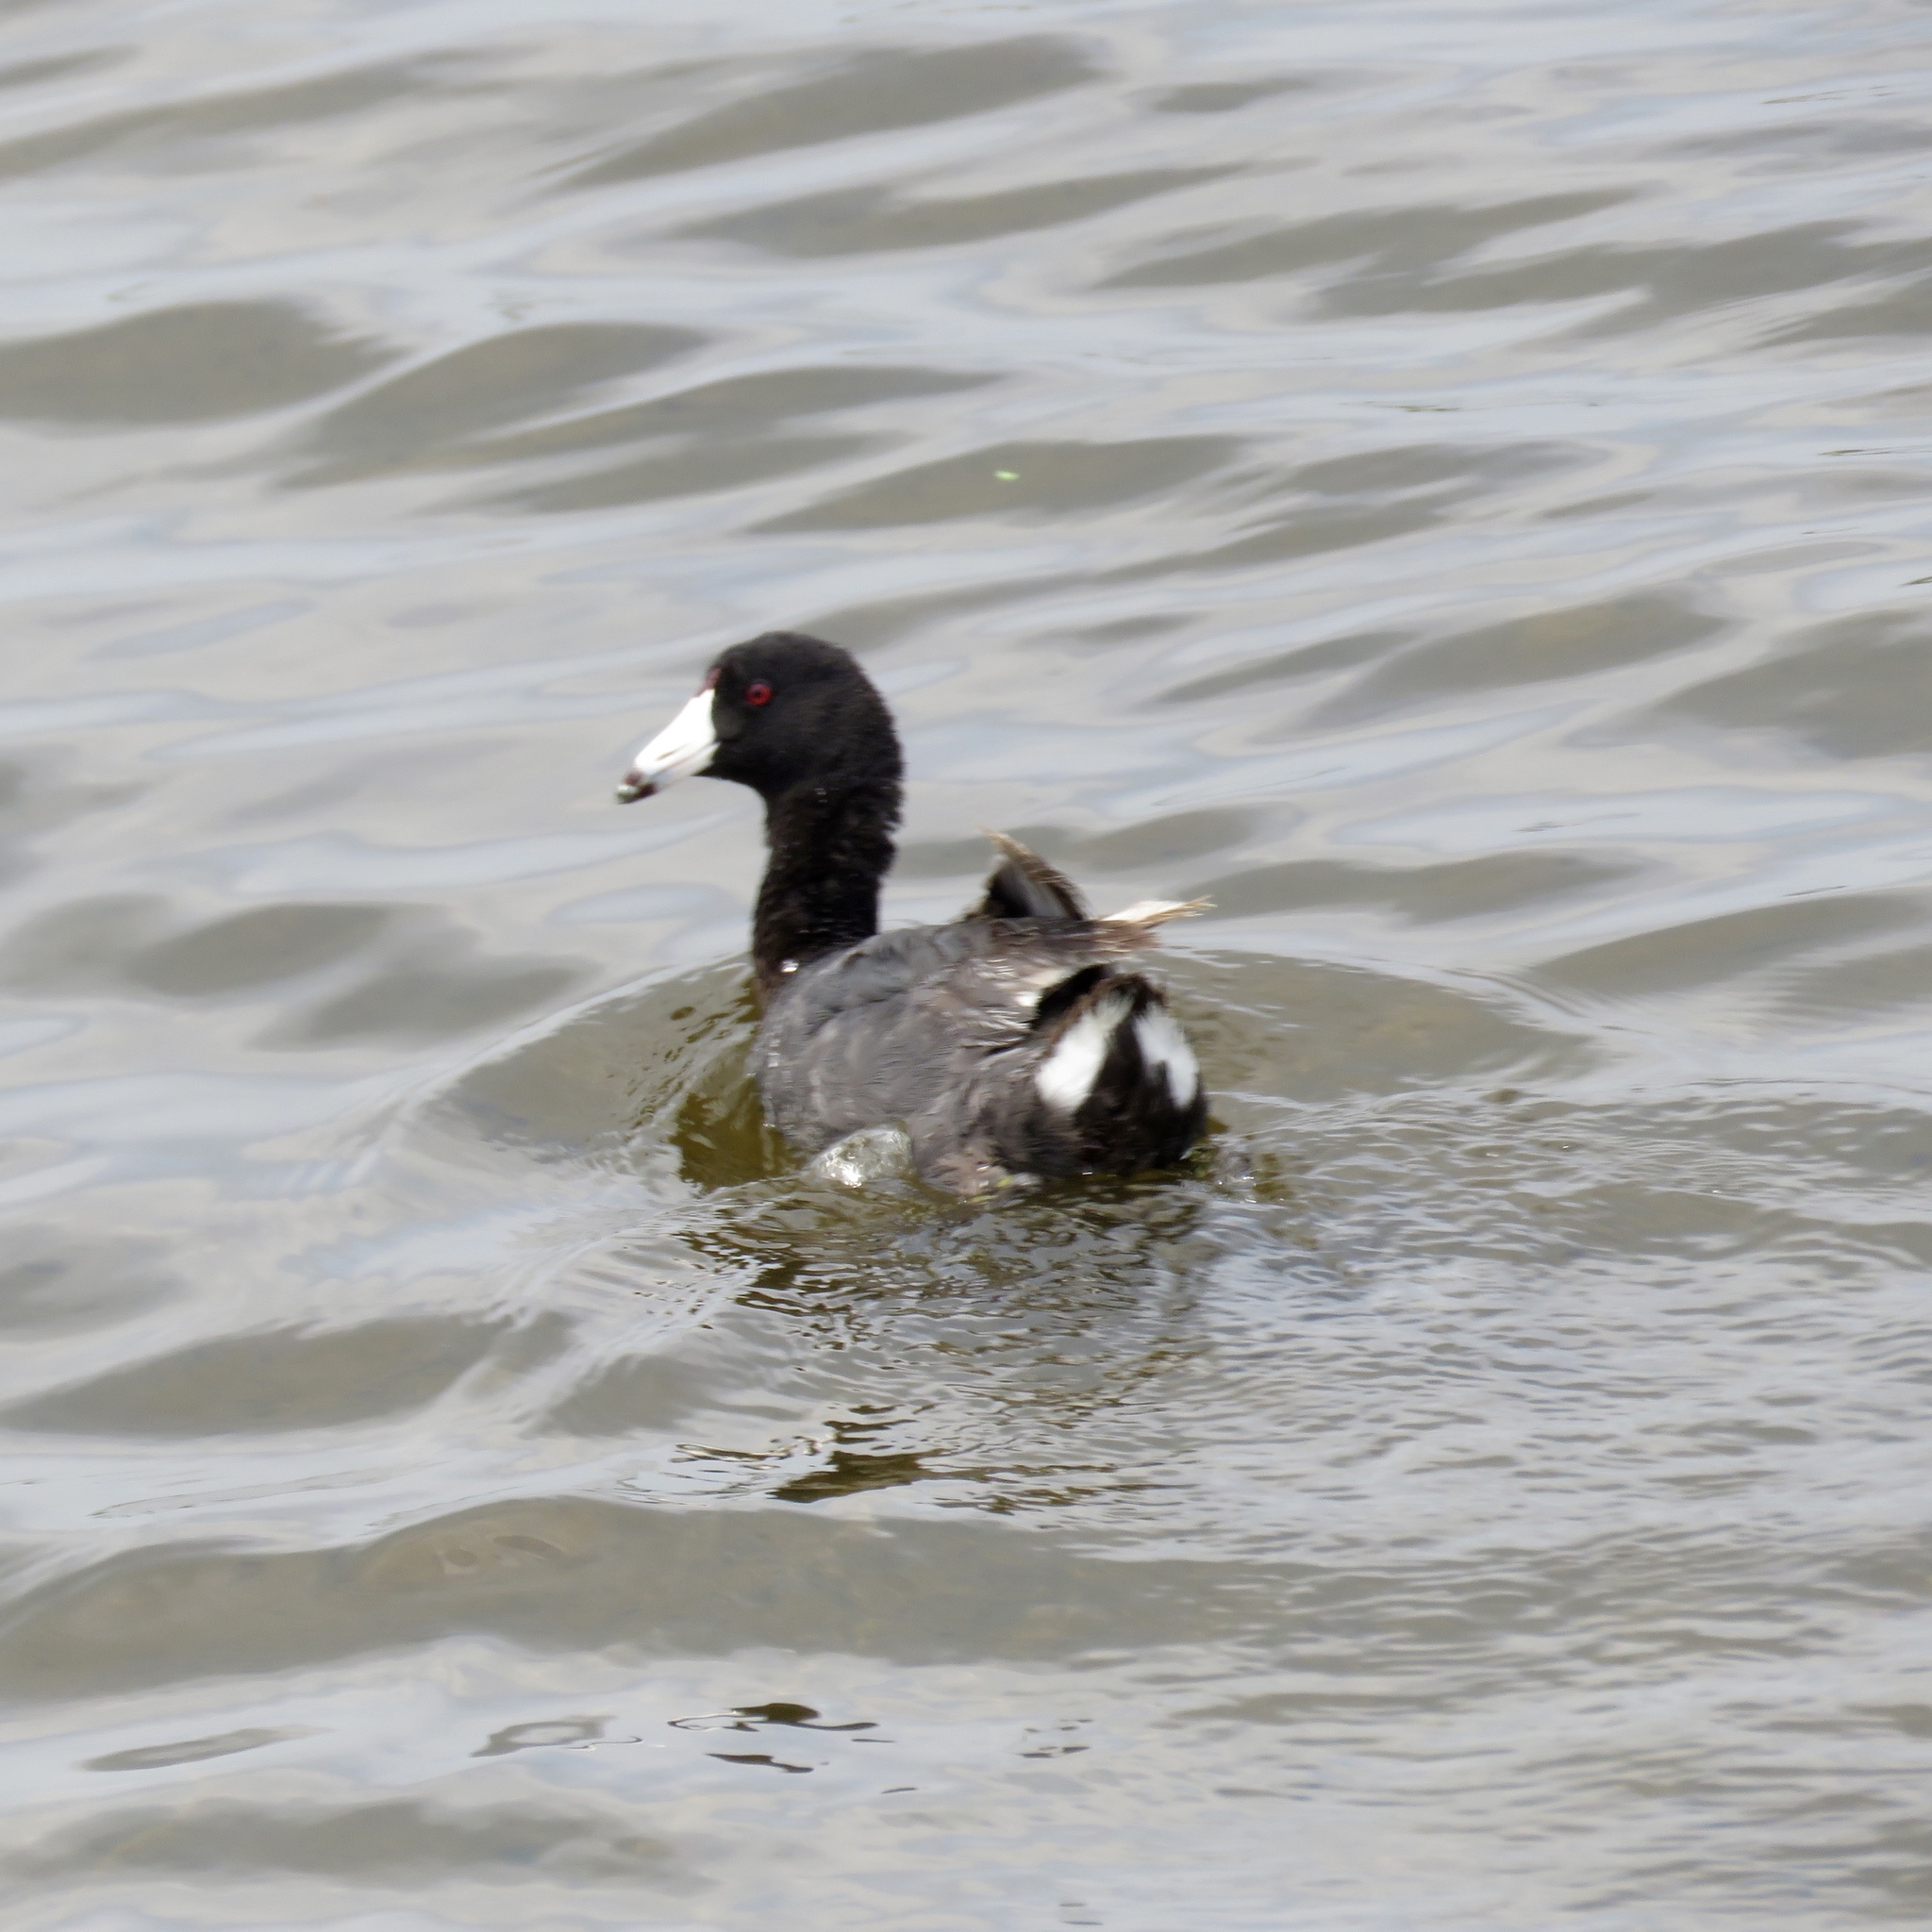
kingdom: Animalia
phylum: Chordata
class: Aves
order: Gruiformes
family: Rallidae
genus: Fulica
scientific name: Fulica americana
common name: American coot
